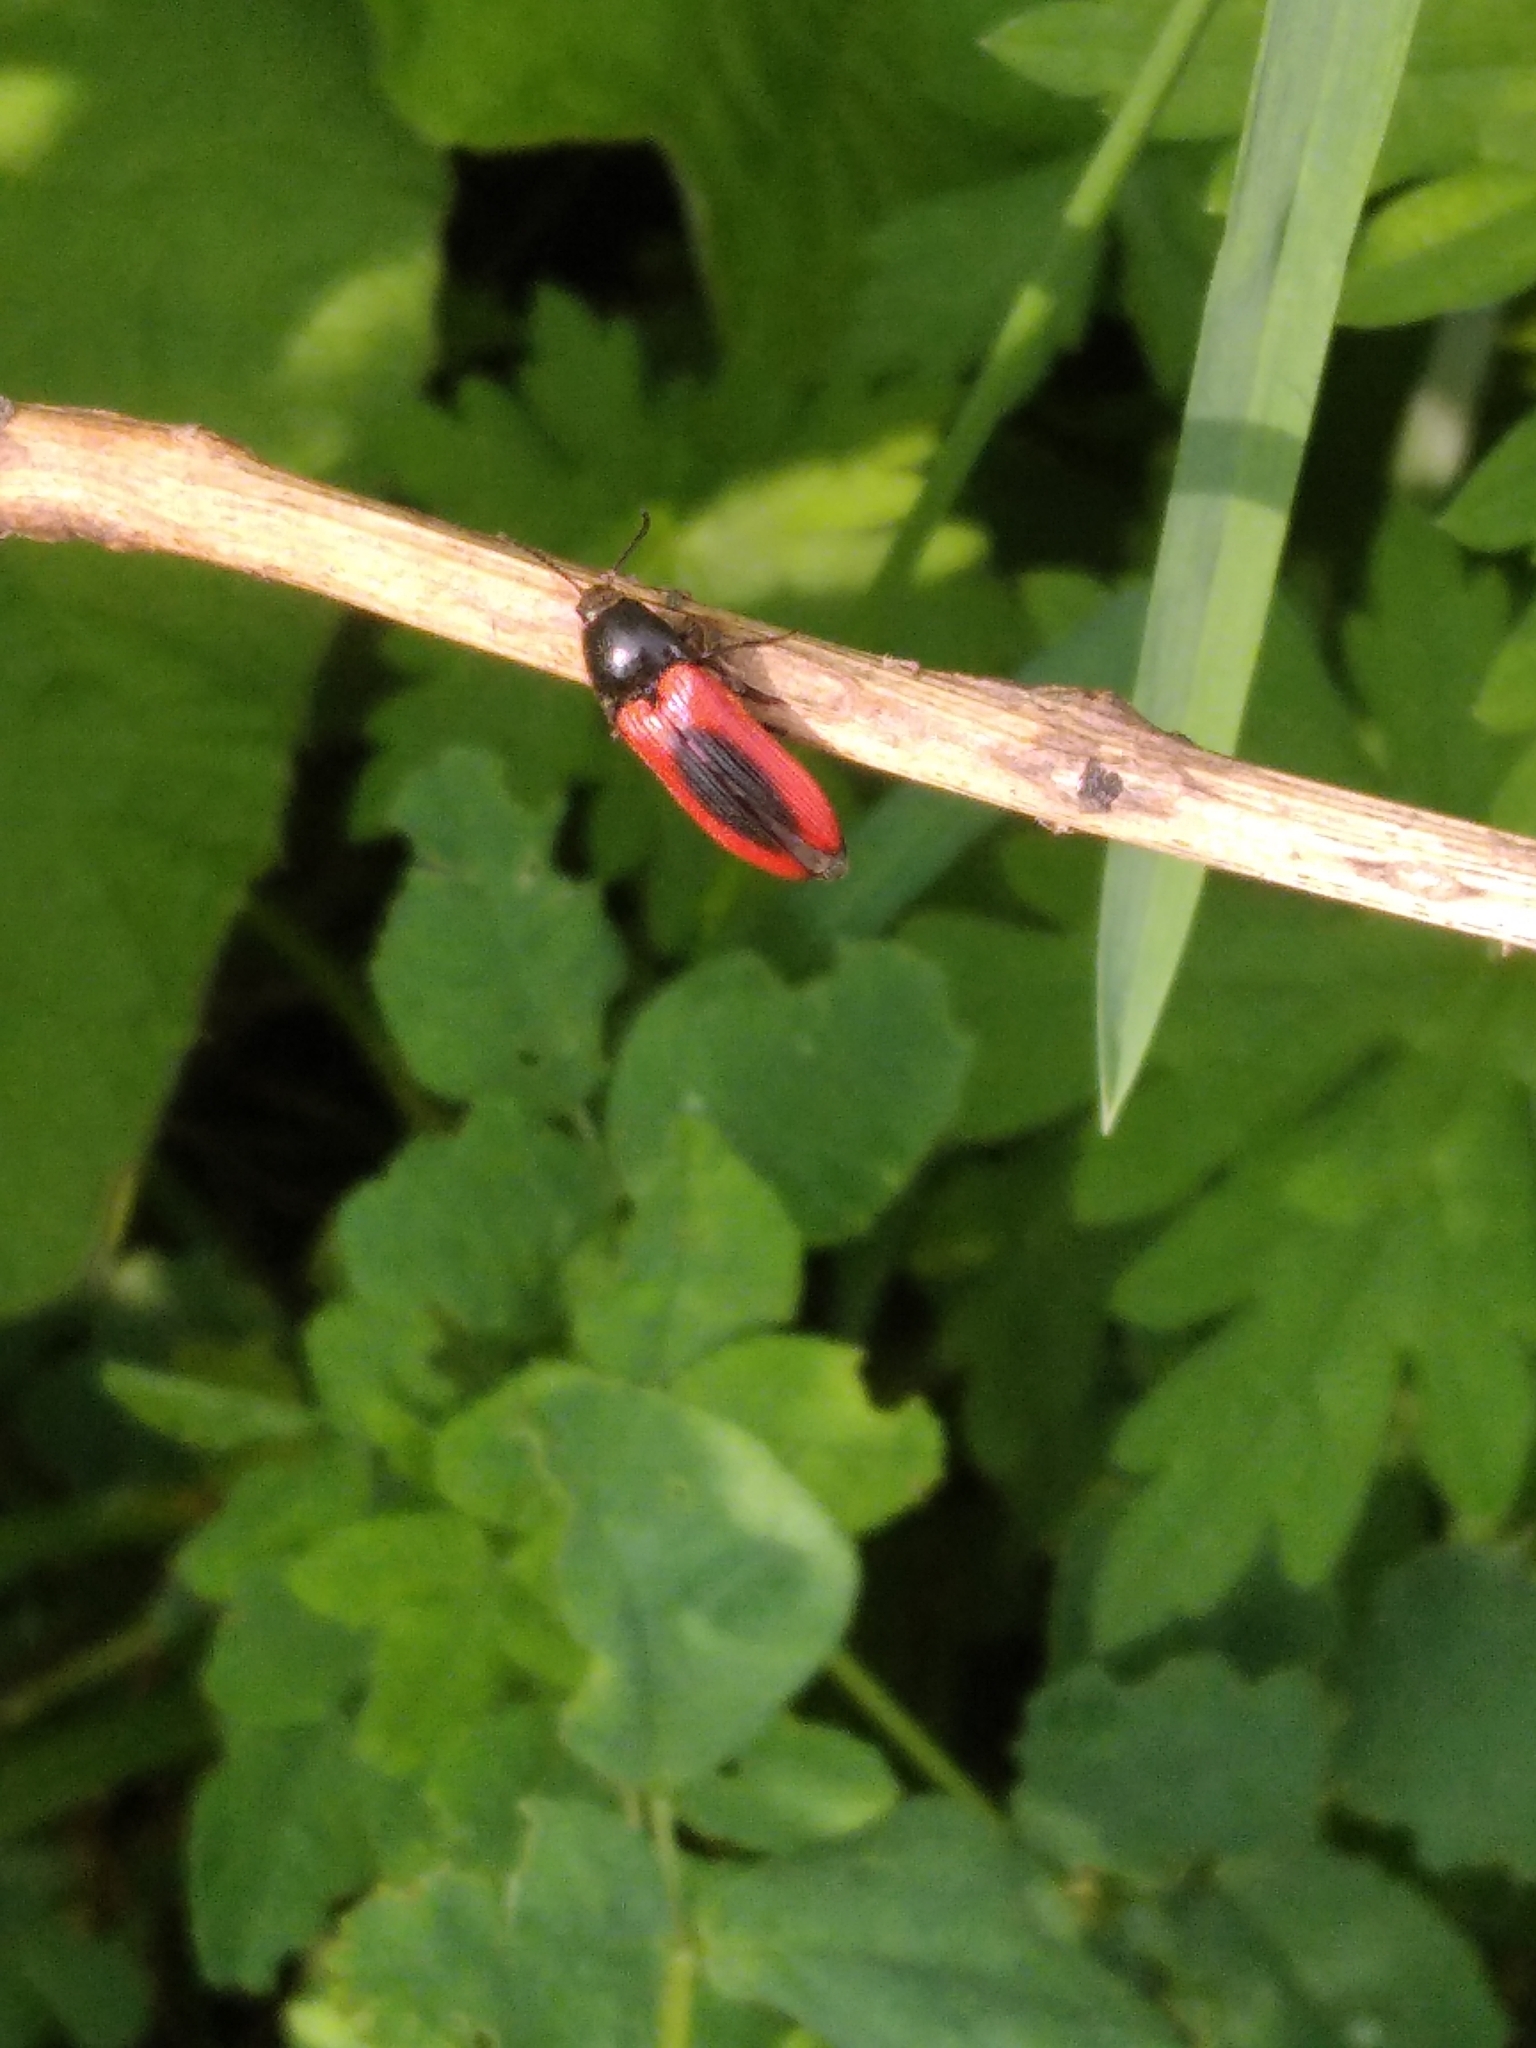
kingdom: Animalia
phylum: Arthropoda
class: Insecta
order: Coleoptera
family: Elateridae
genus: Ampedus
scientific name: Ampedus sanguinolentus
